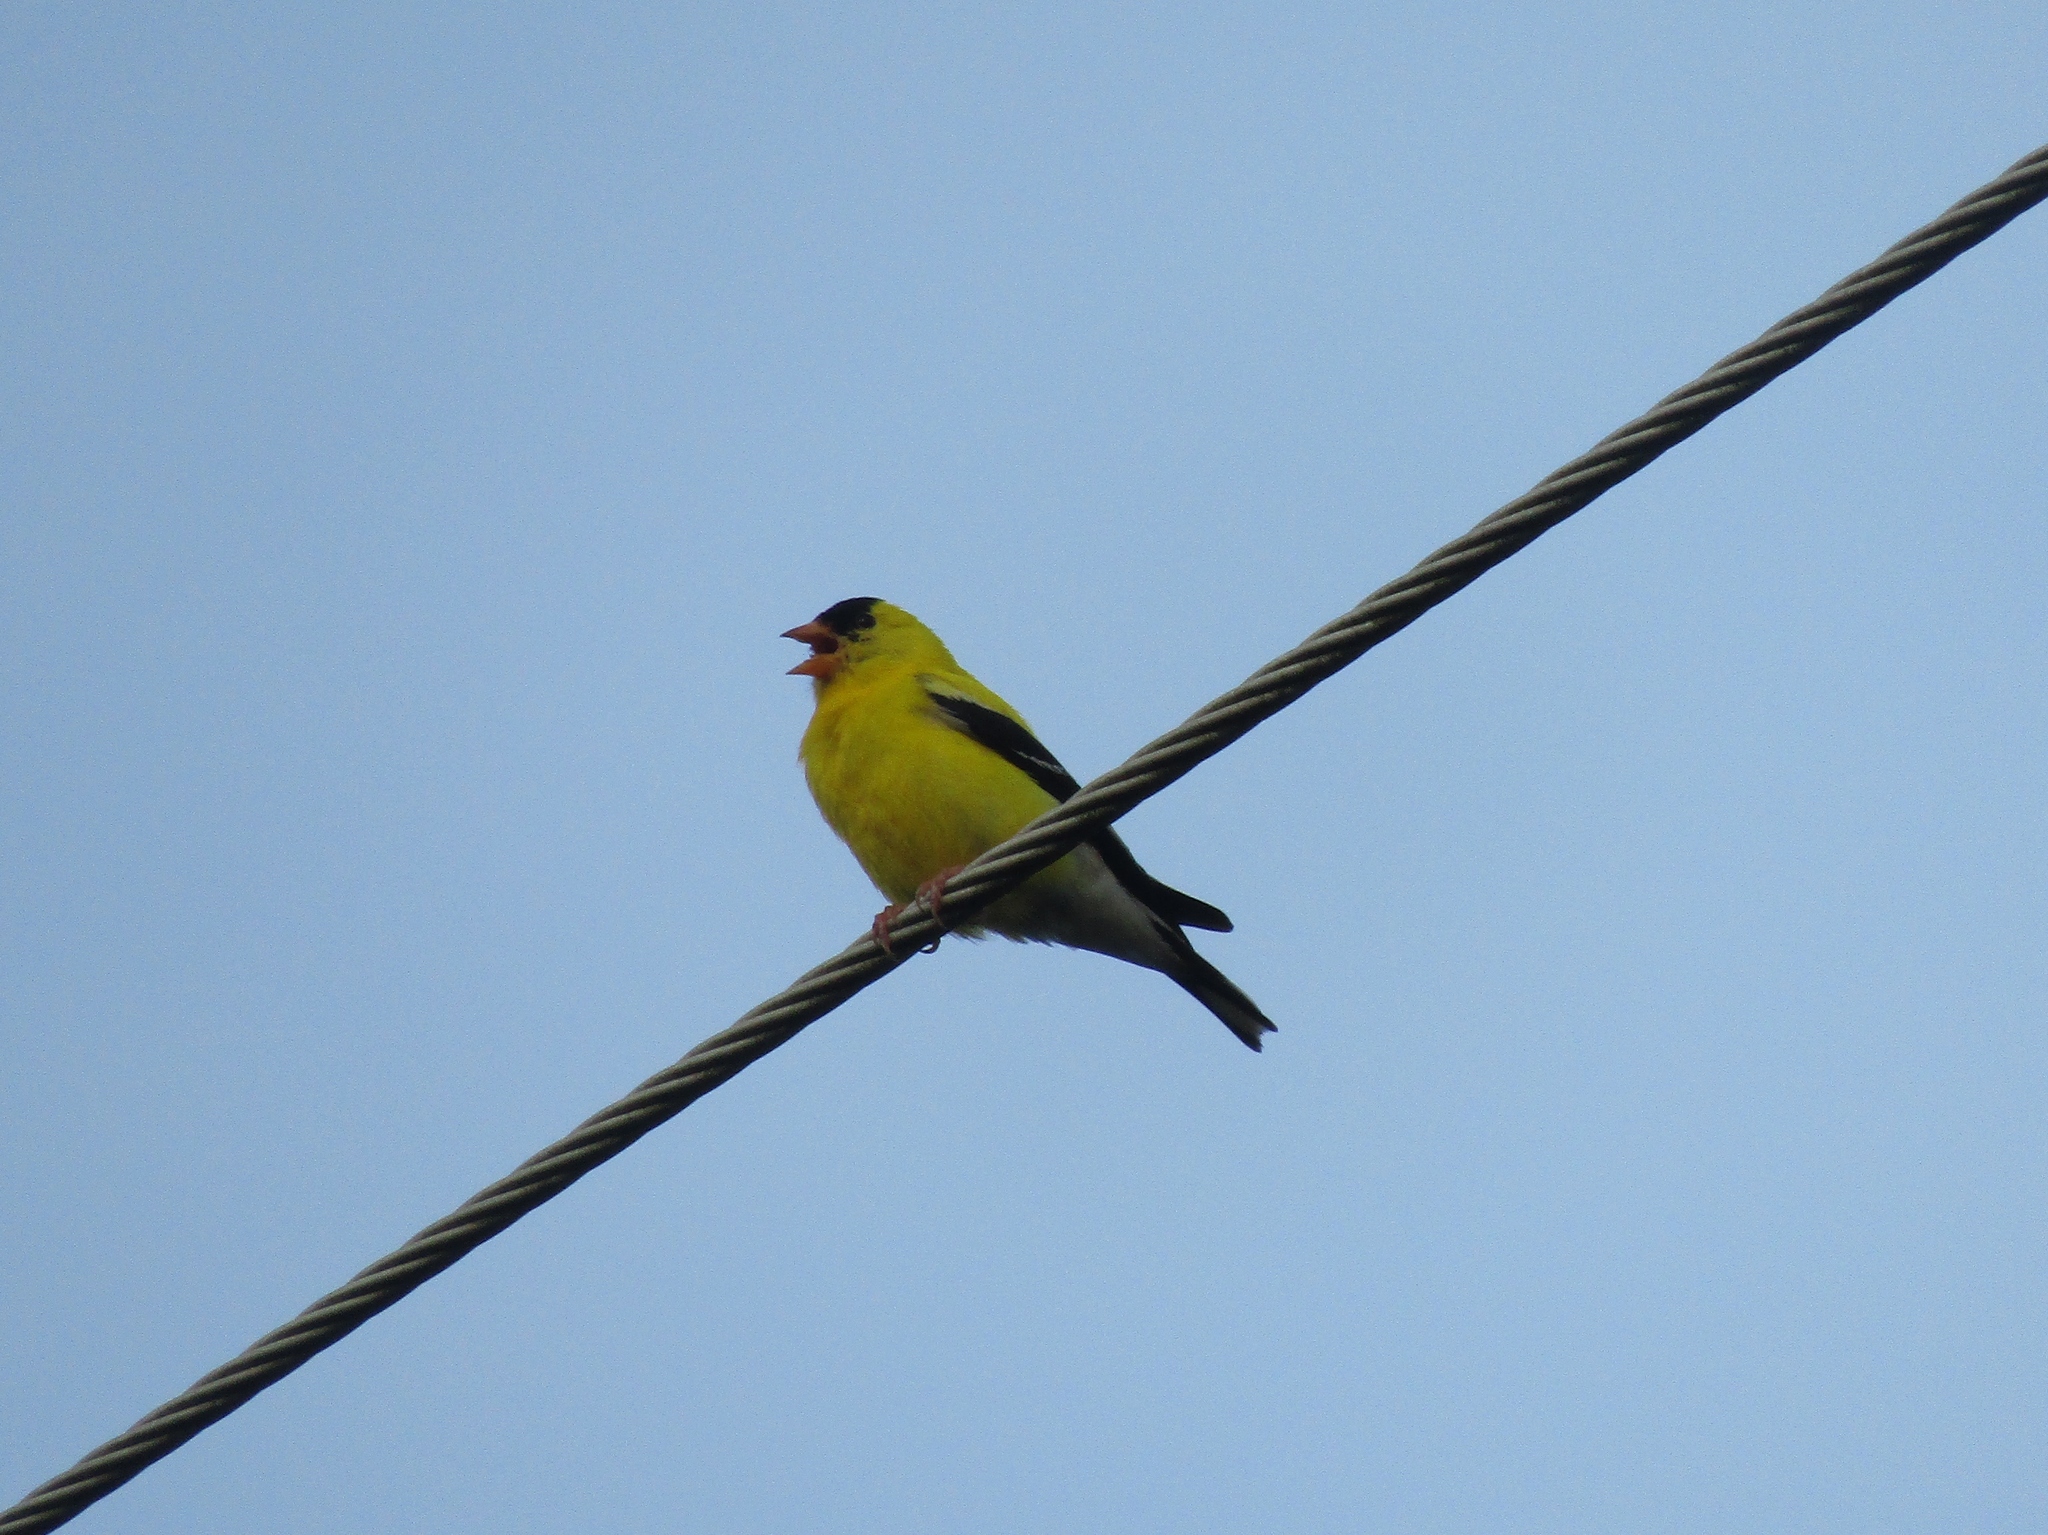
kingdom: Animalia
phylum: Chordata
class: Aves
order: Passeriformes
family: Fringillidae
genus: Spinus
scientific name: Spinus tristis
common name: American goldfinch
